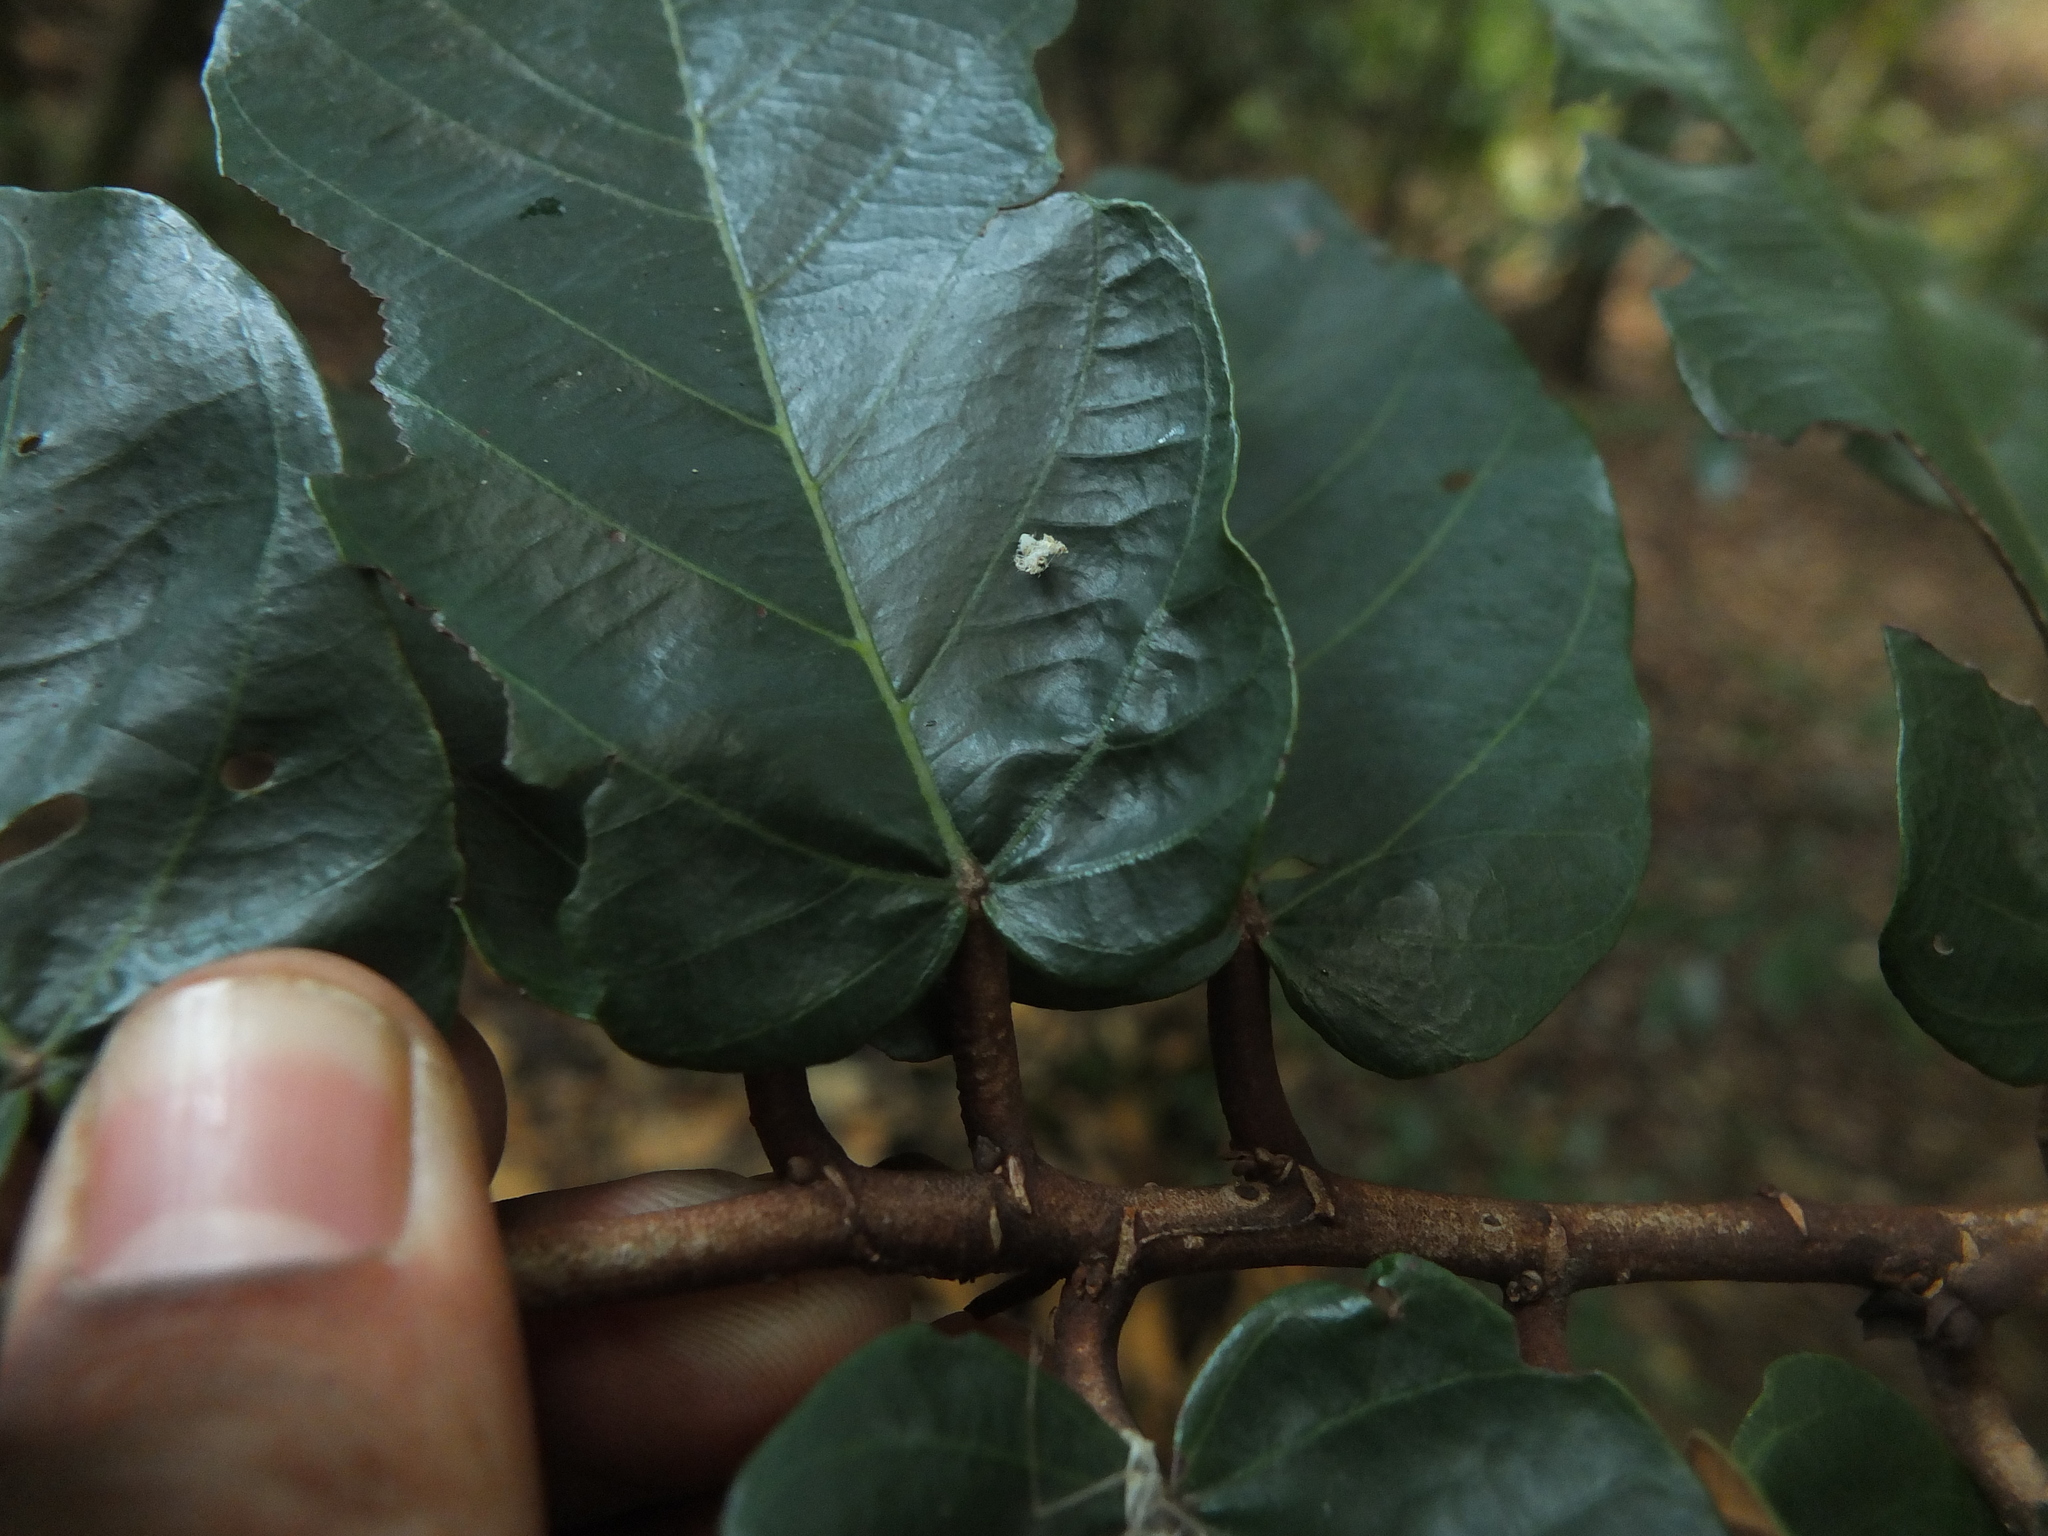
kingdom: Plantae
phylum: Tracheophyta
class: Magnoliopsida
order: Malvales
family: Malvaceae
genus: Pterospermum
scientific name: Pterospermum diversifolium
